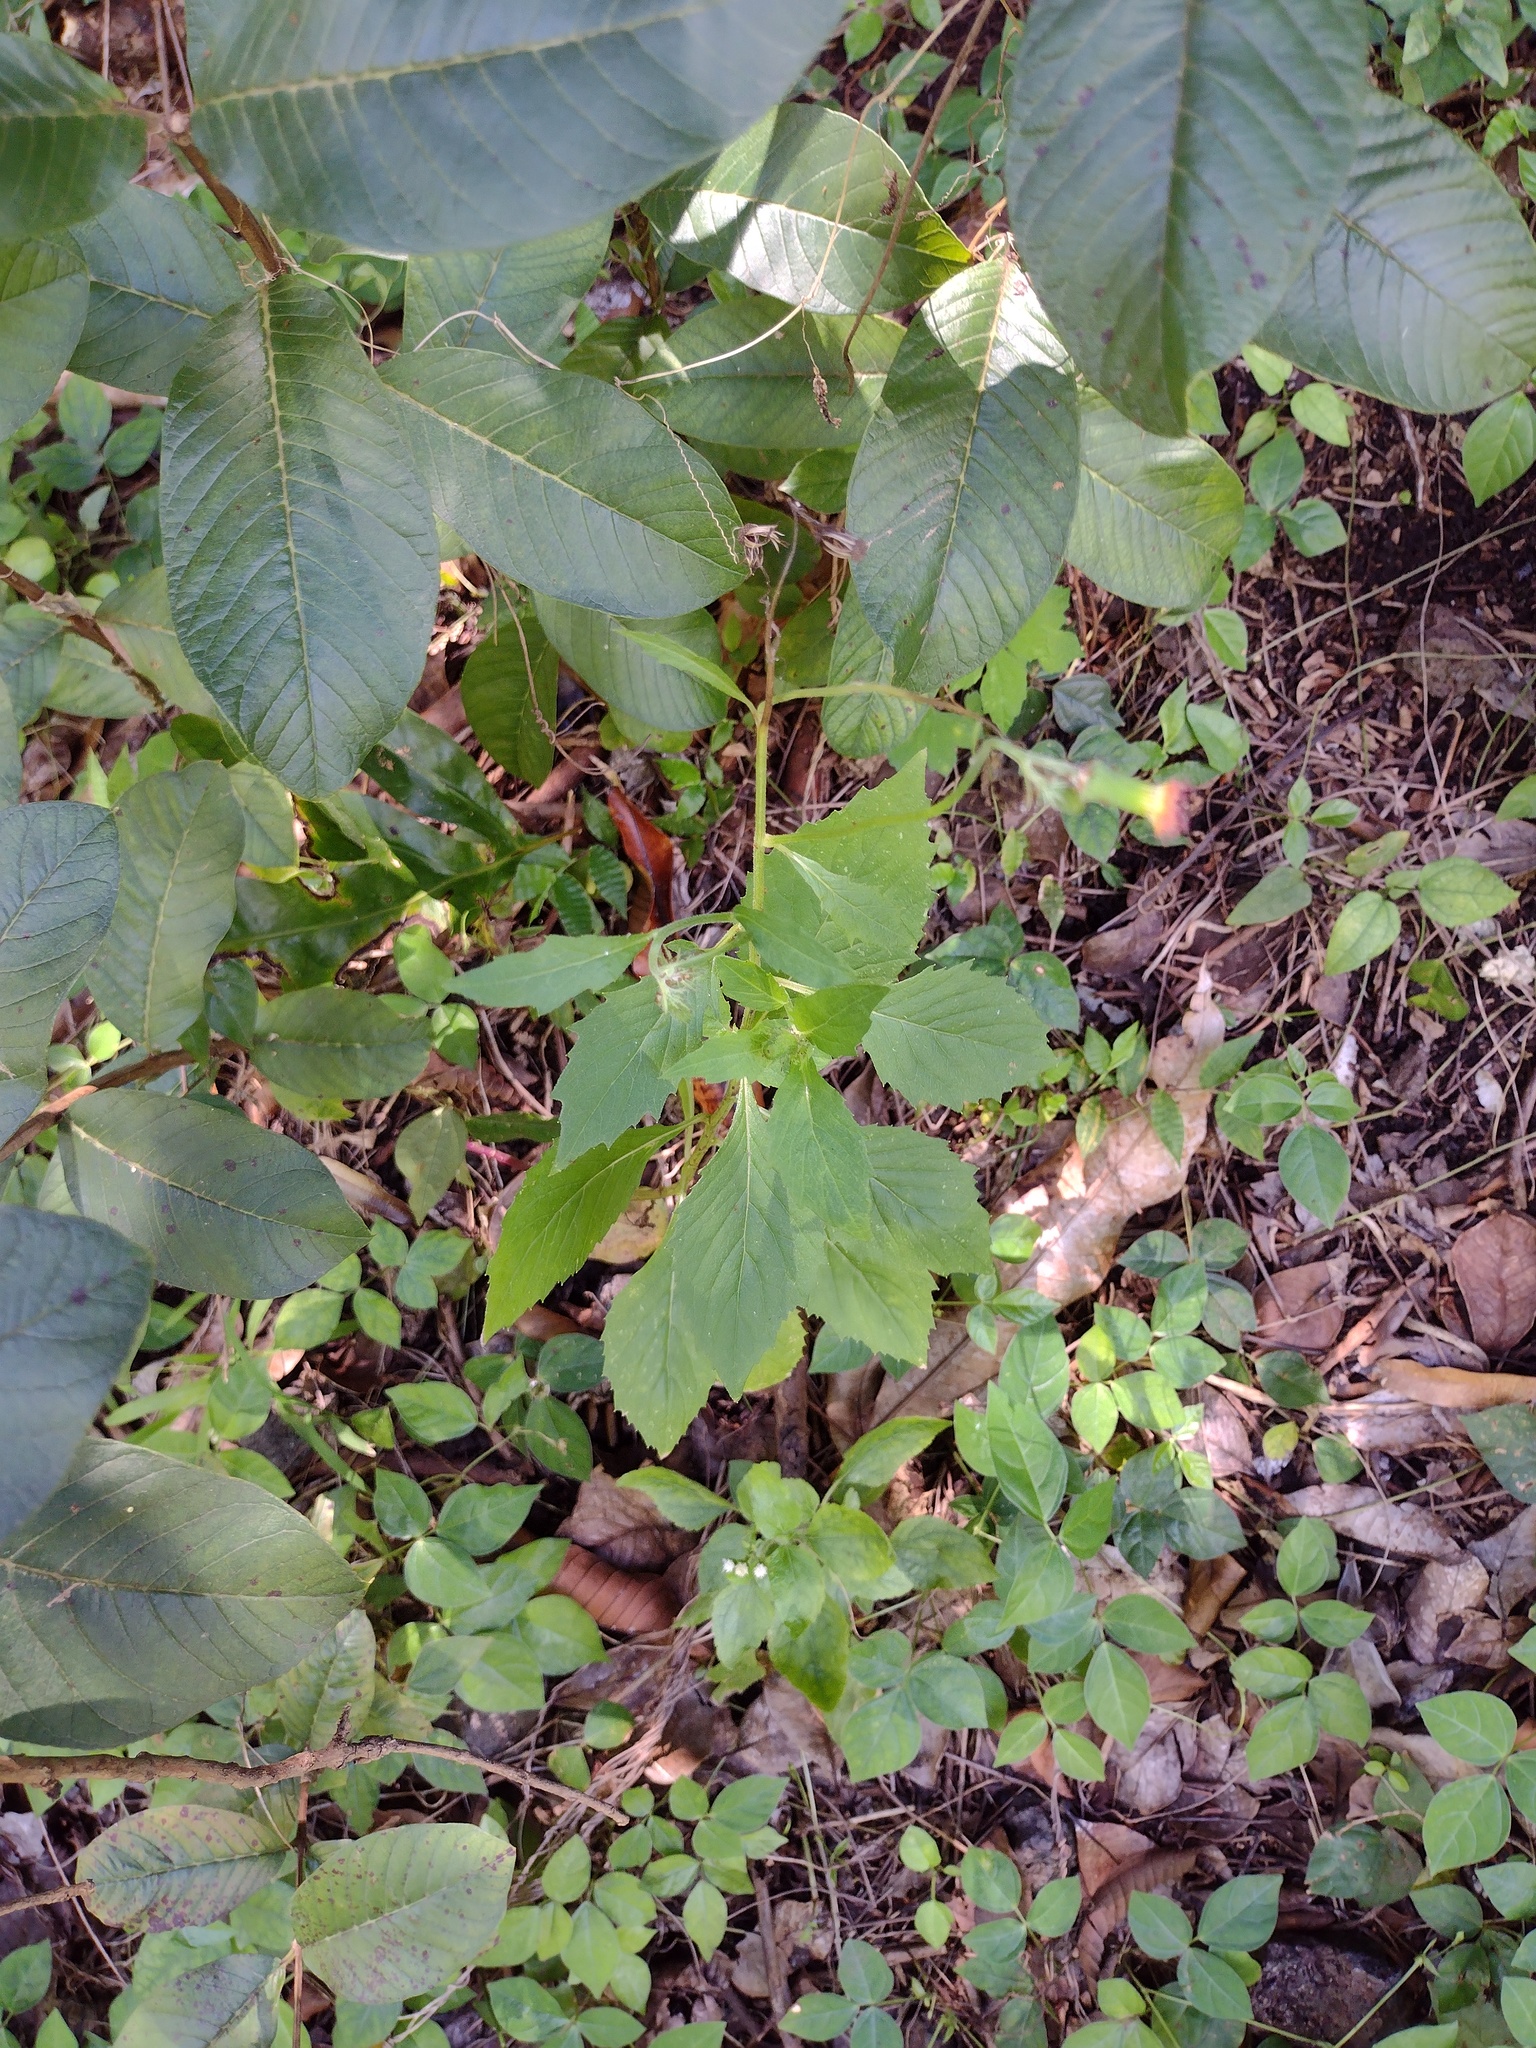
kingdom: Plantae
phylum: Tracheophyta
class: Magnoliopsida
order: Asterales
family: Asteraceae
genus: Crassocephalum
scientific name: Crassocephalum crepidioides
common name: Redflower ragleaf
